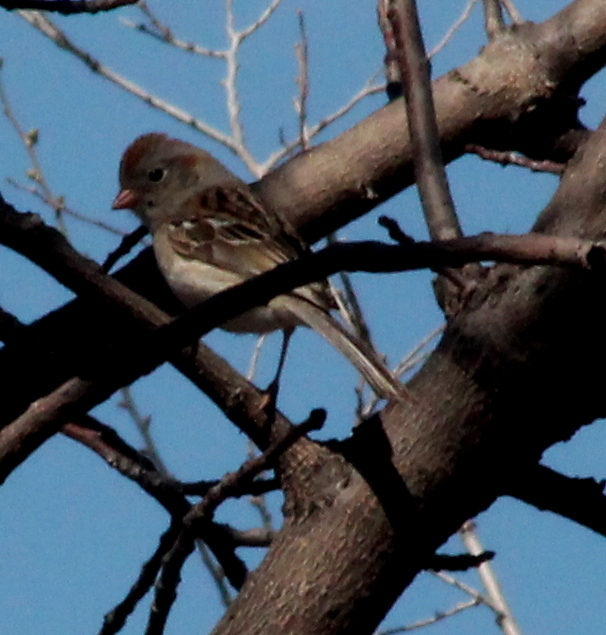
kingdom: Animalia
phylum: Chordata
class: Aves
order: Passeriformes
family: Passerellidae
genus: Spizella
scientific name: Spizella pusilla
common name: Field sparrow
